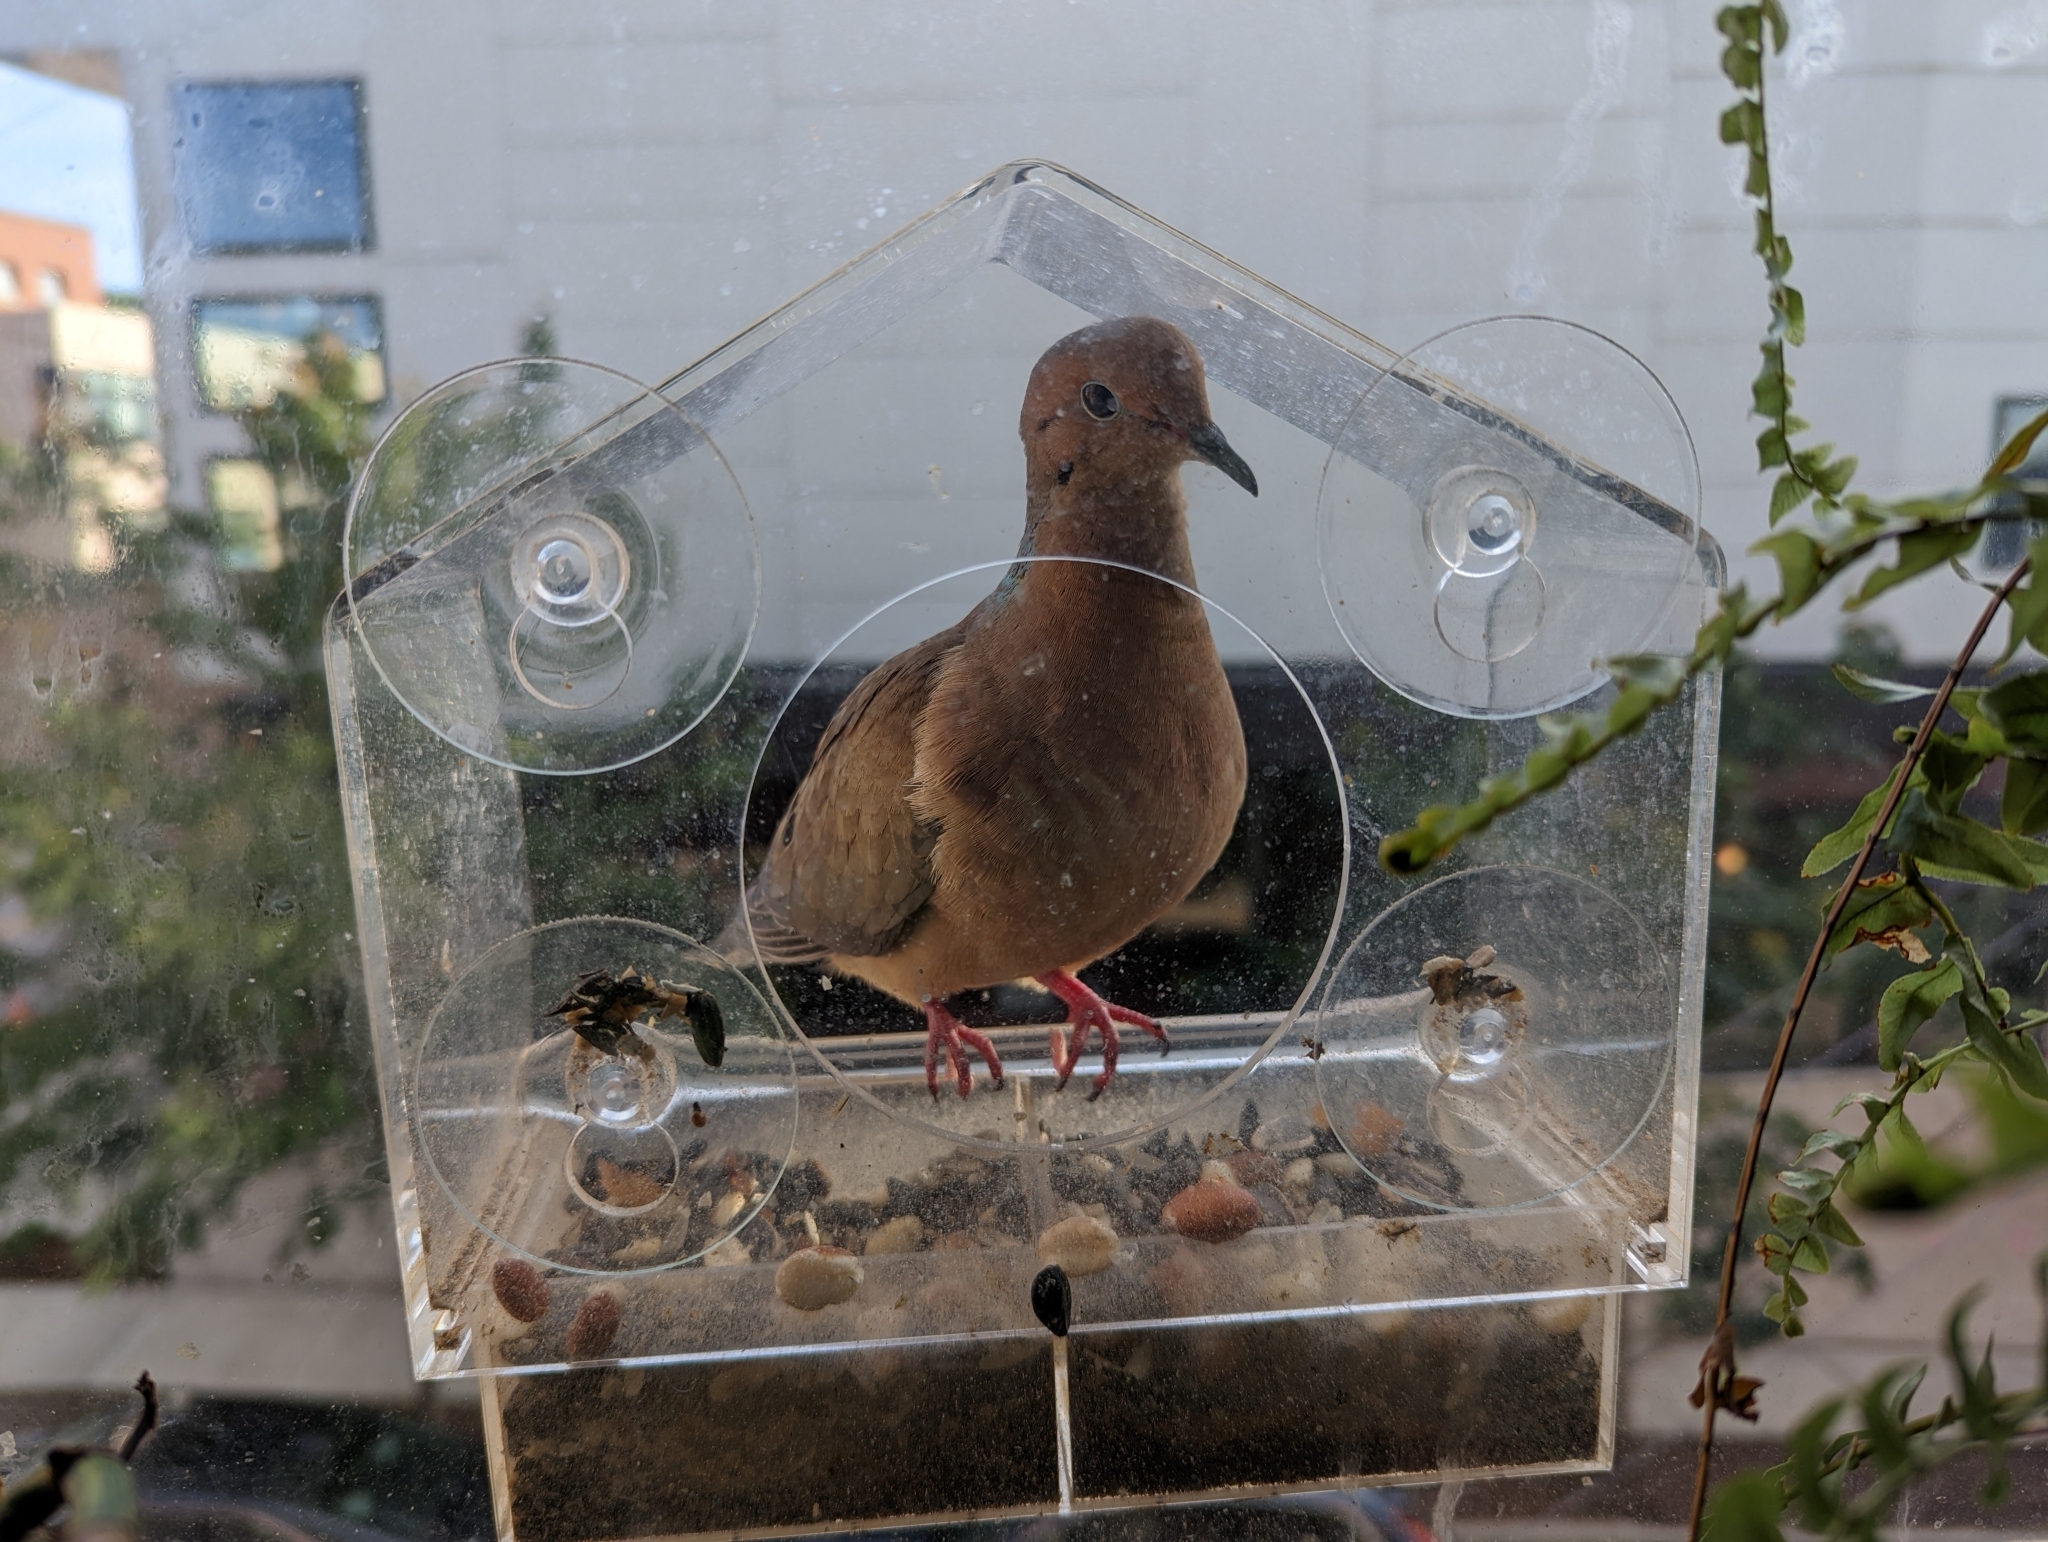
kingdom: Animalia
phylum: Chordata
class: Aves
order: Columbiformes
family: Columbidae
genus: Zenaida
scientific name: Zenaida macroura
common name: Mourning dove
